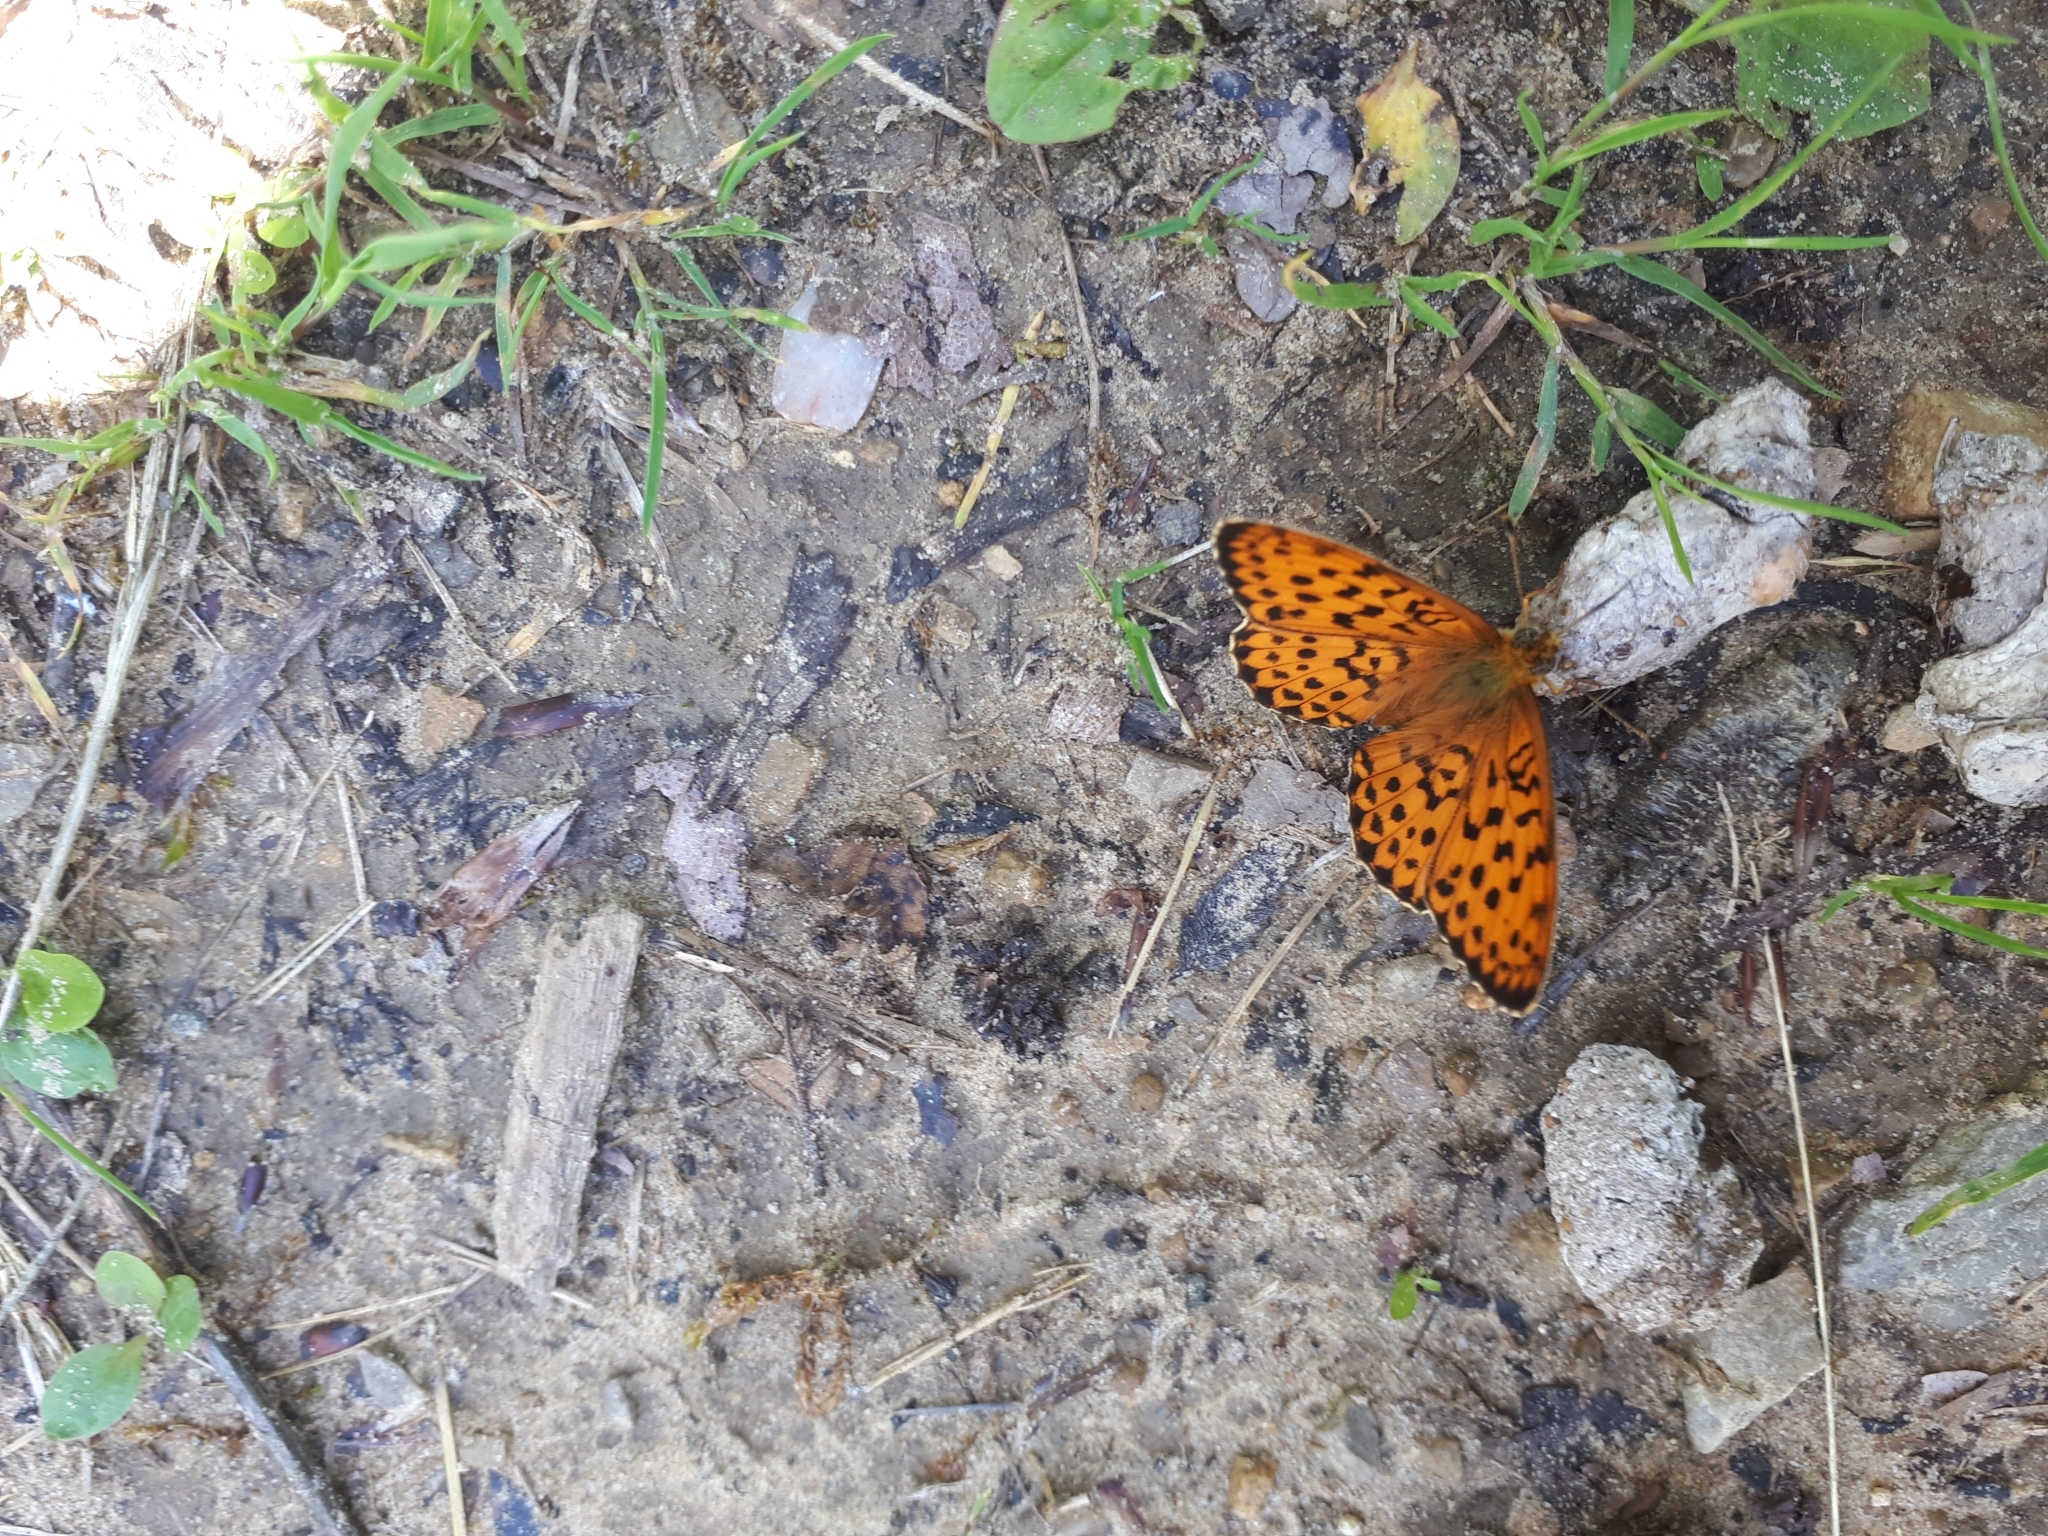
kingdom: Animalia
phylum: Arthropoda
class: Insecta
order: Lepidoptera
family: Nymphalidae
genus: Brenthis
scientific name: Brenthis daphne
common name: Marbled fritillary
